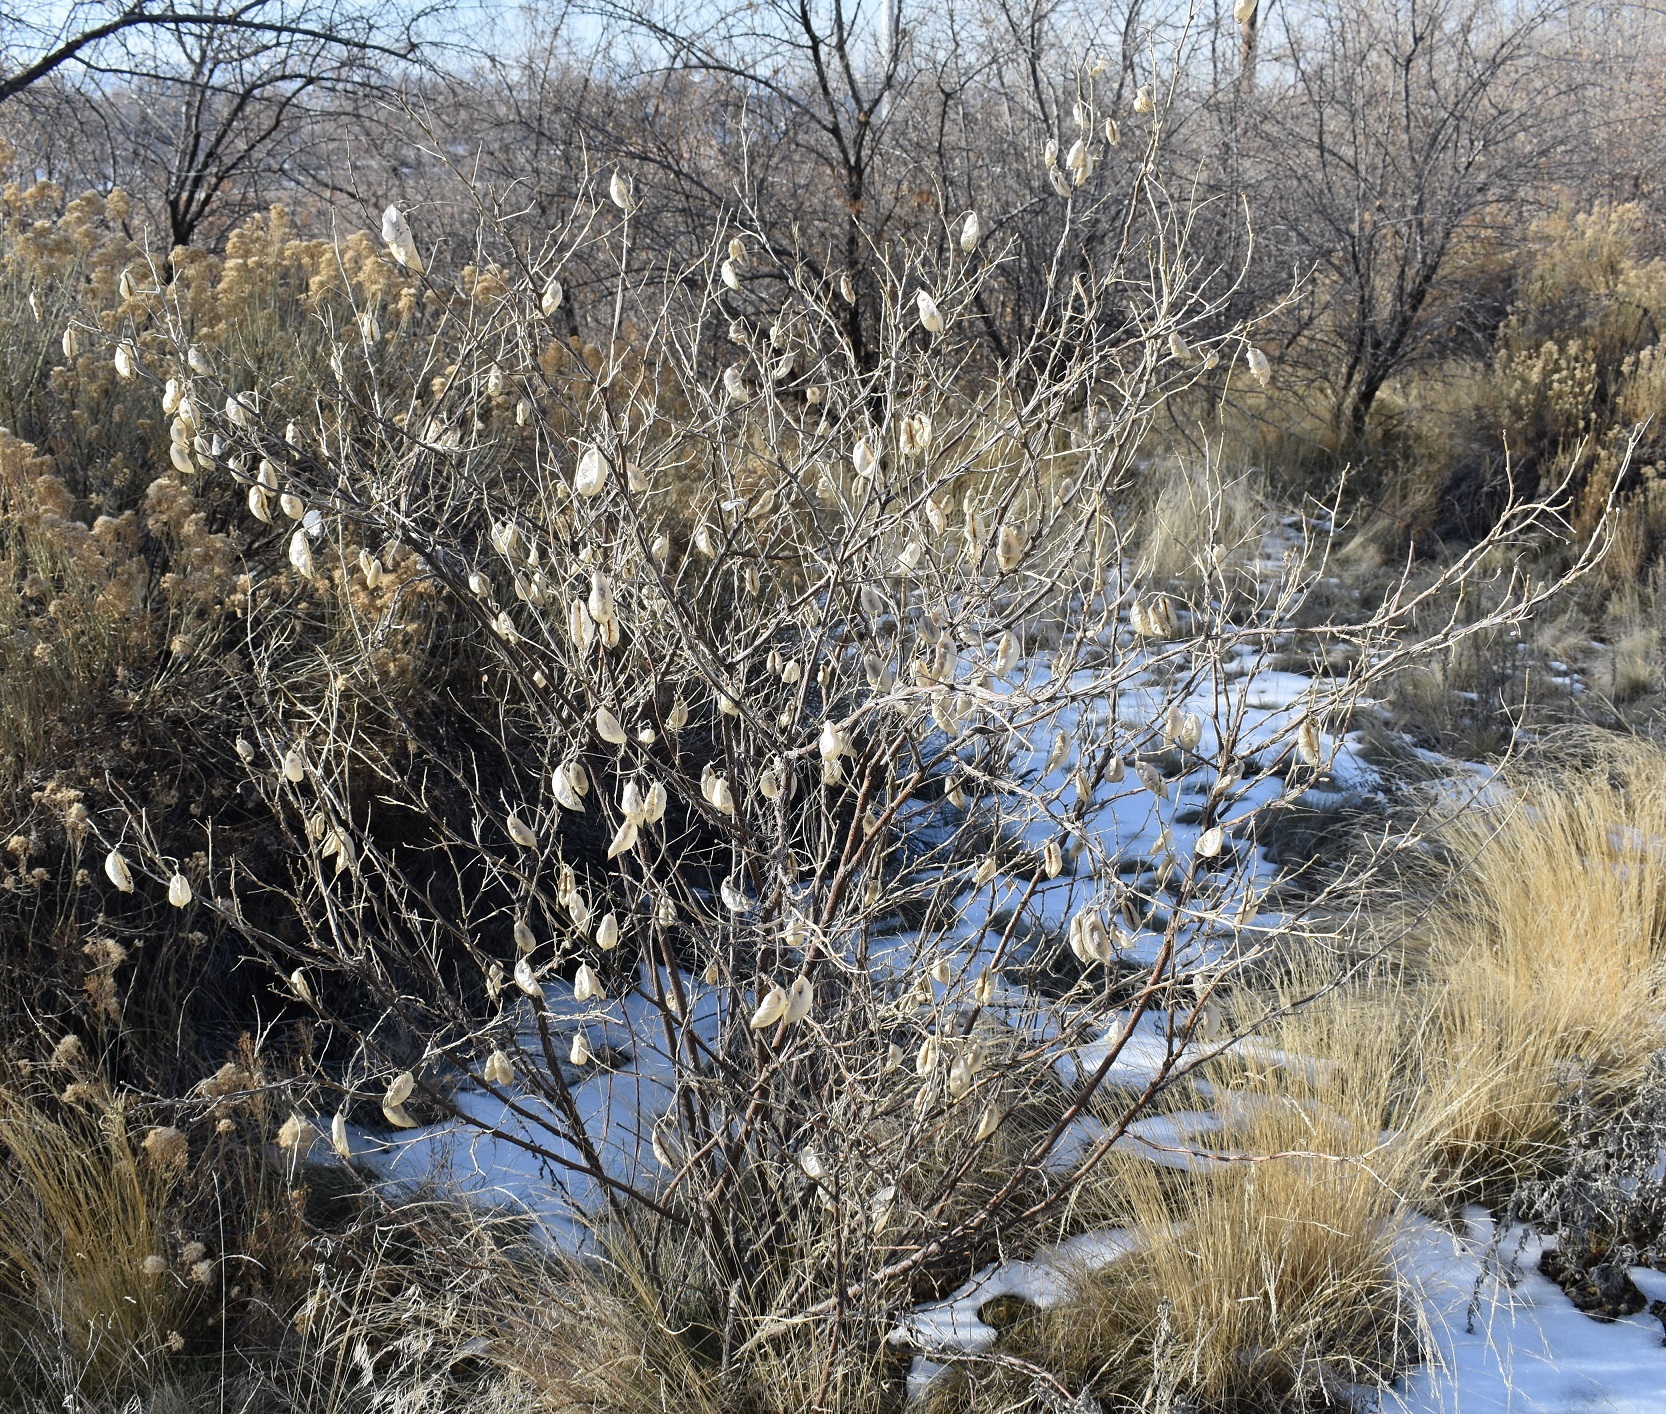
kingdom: Plantae
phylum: Tracheophyta
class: Magnoliopsida
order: Fabales
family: Fabaceae
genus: Colutea
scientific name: Colutea arborescens
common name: Bladder-senna
